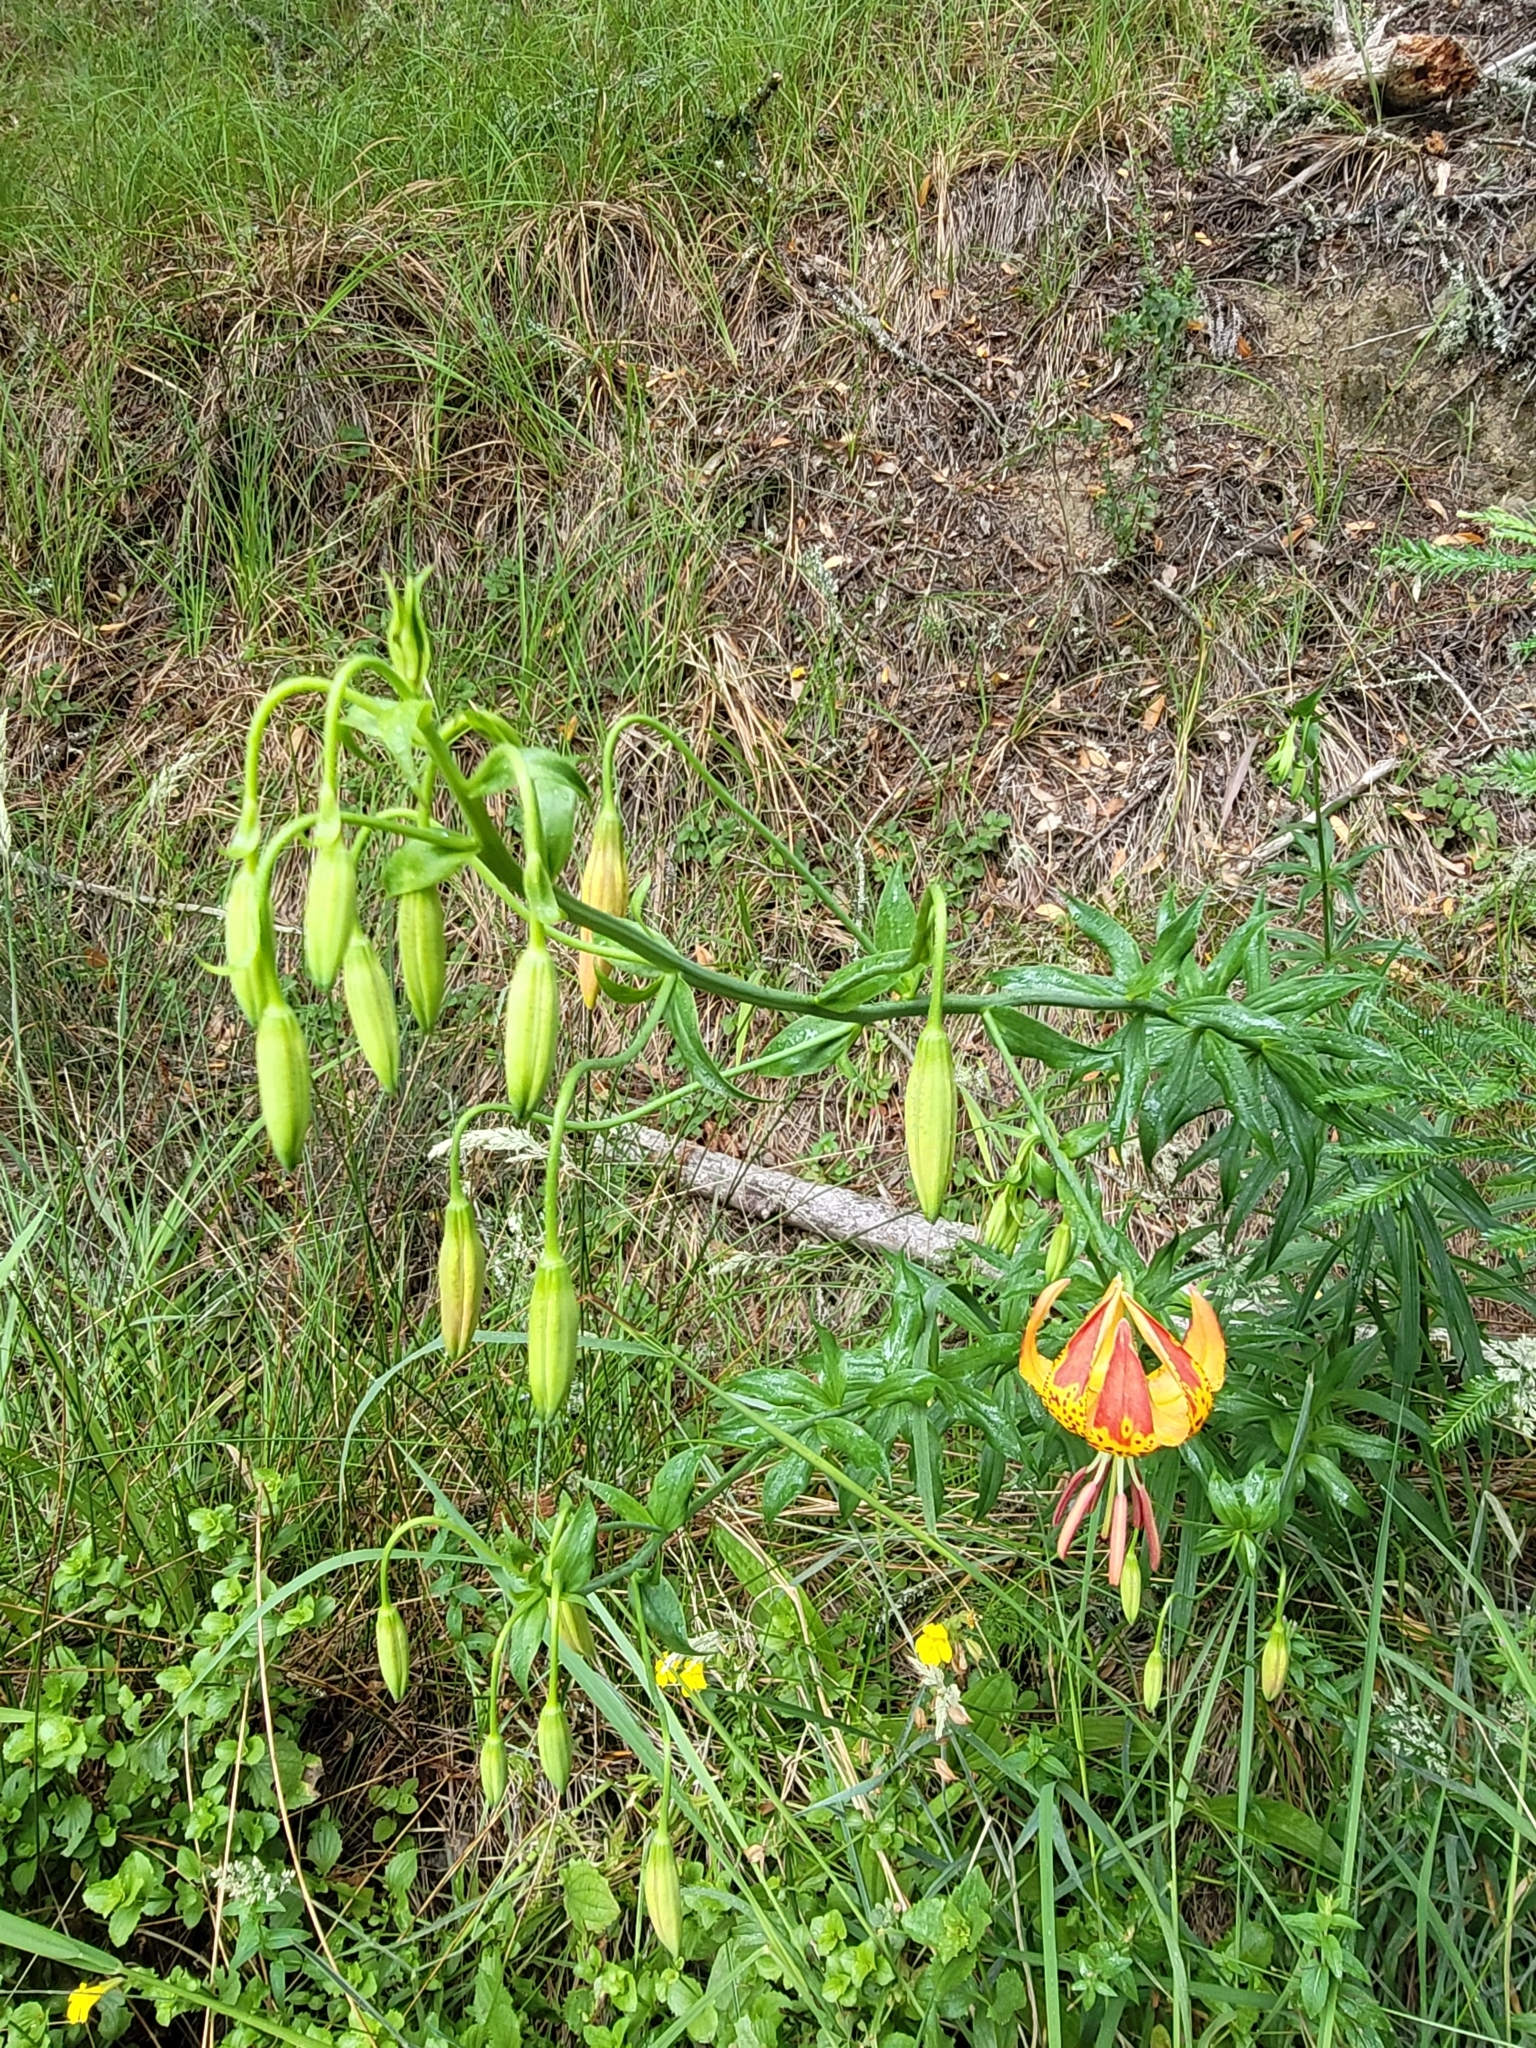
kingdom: Plantae
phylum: Tracheophyta
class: Liliopsida
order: Liliales
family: Liliaceae
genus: Lilium
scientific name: Lilium pardalinum
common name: Panther lily
